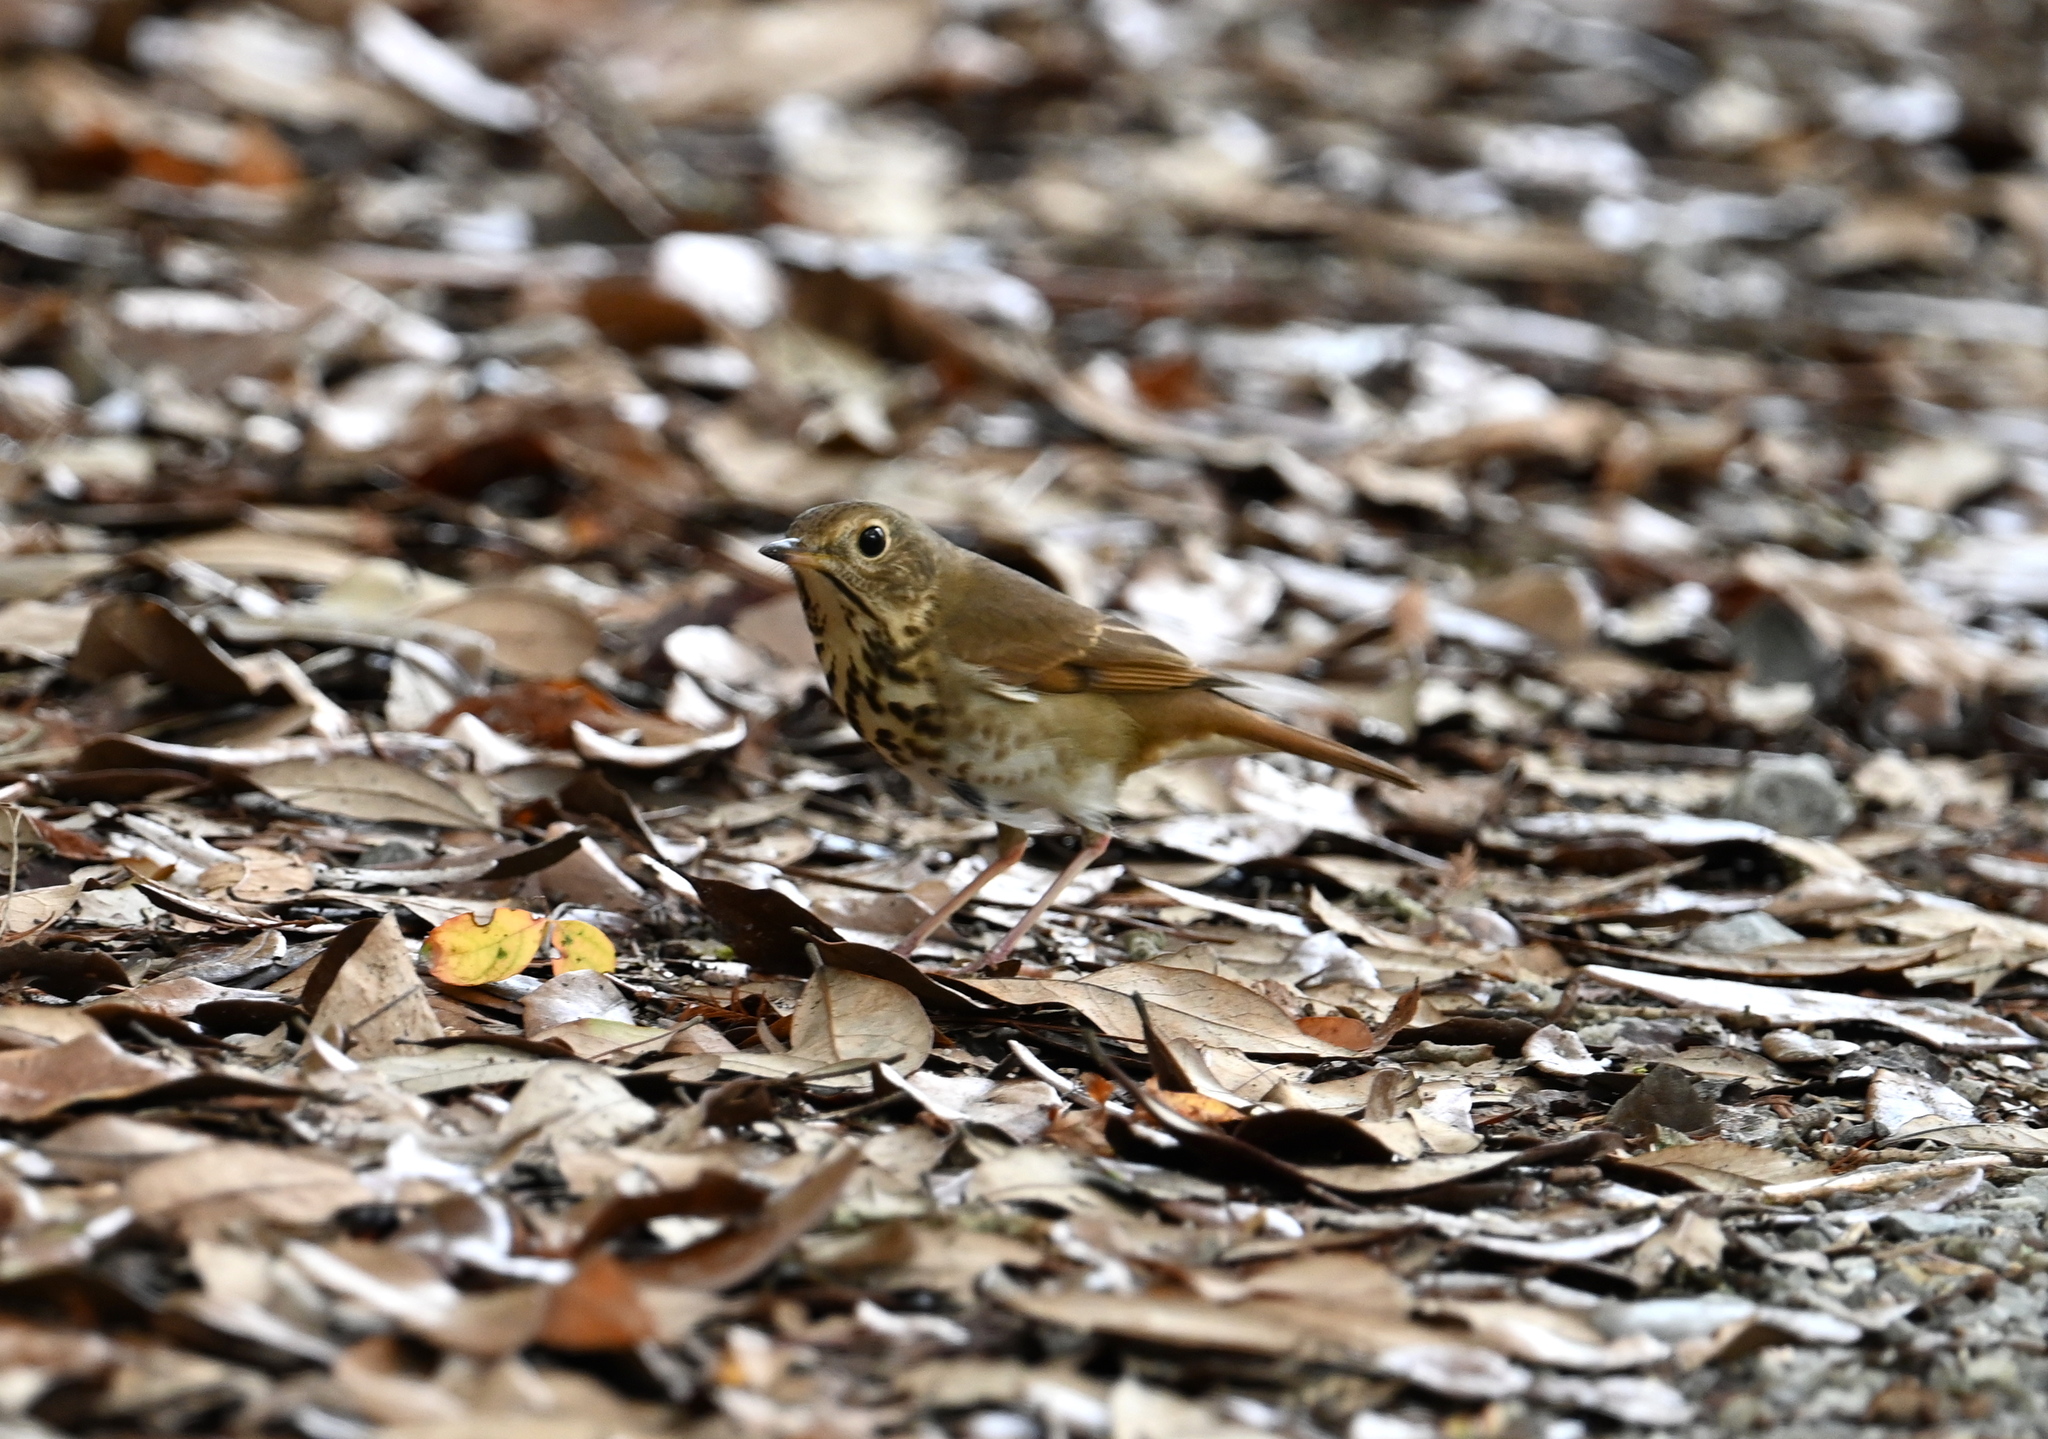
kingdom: Animalia
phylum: Chordata
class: Aves
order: Passeriformes
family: Turdidae
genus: Catharus
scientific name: Catharus guttatus
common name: Hermit thrush
